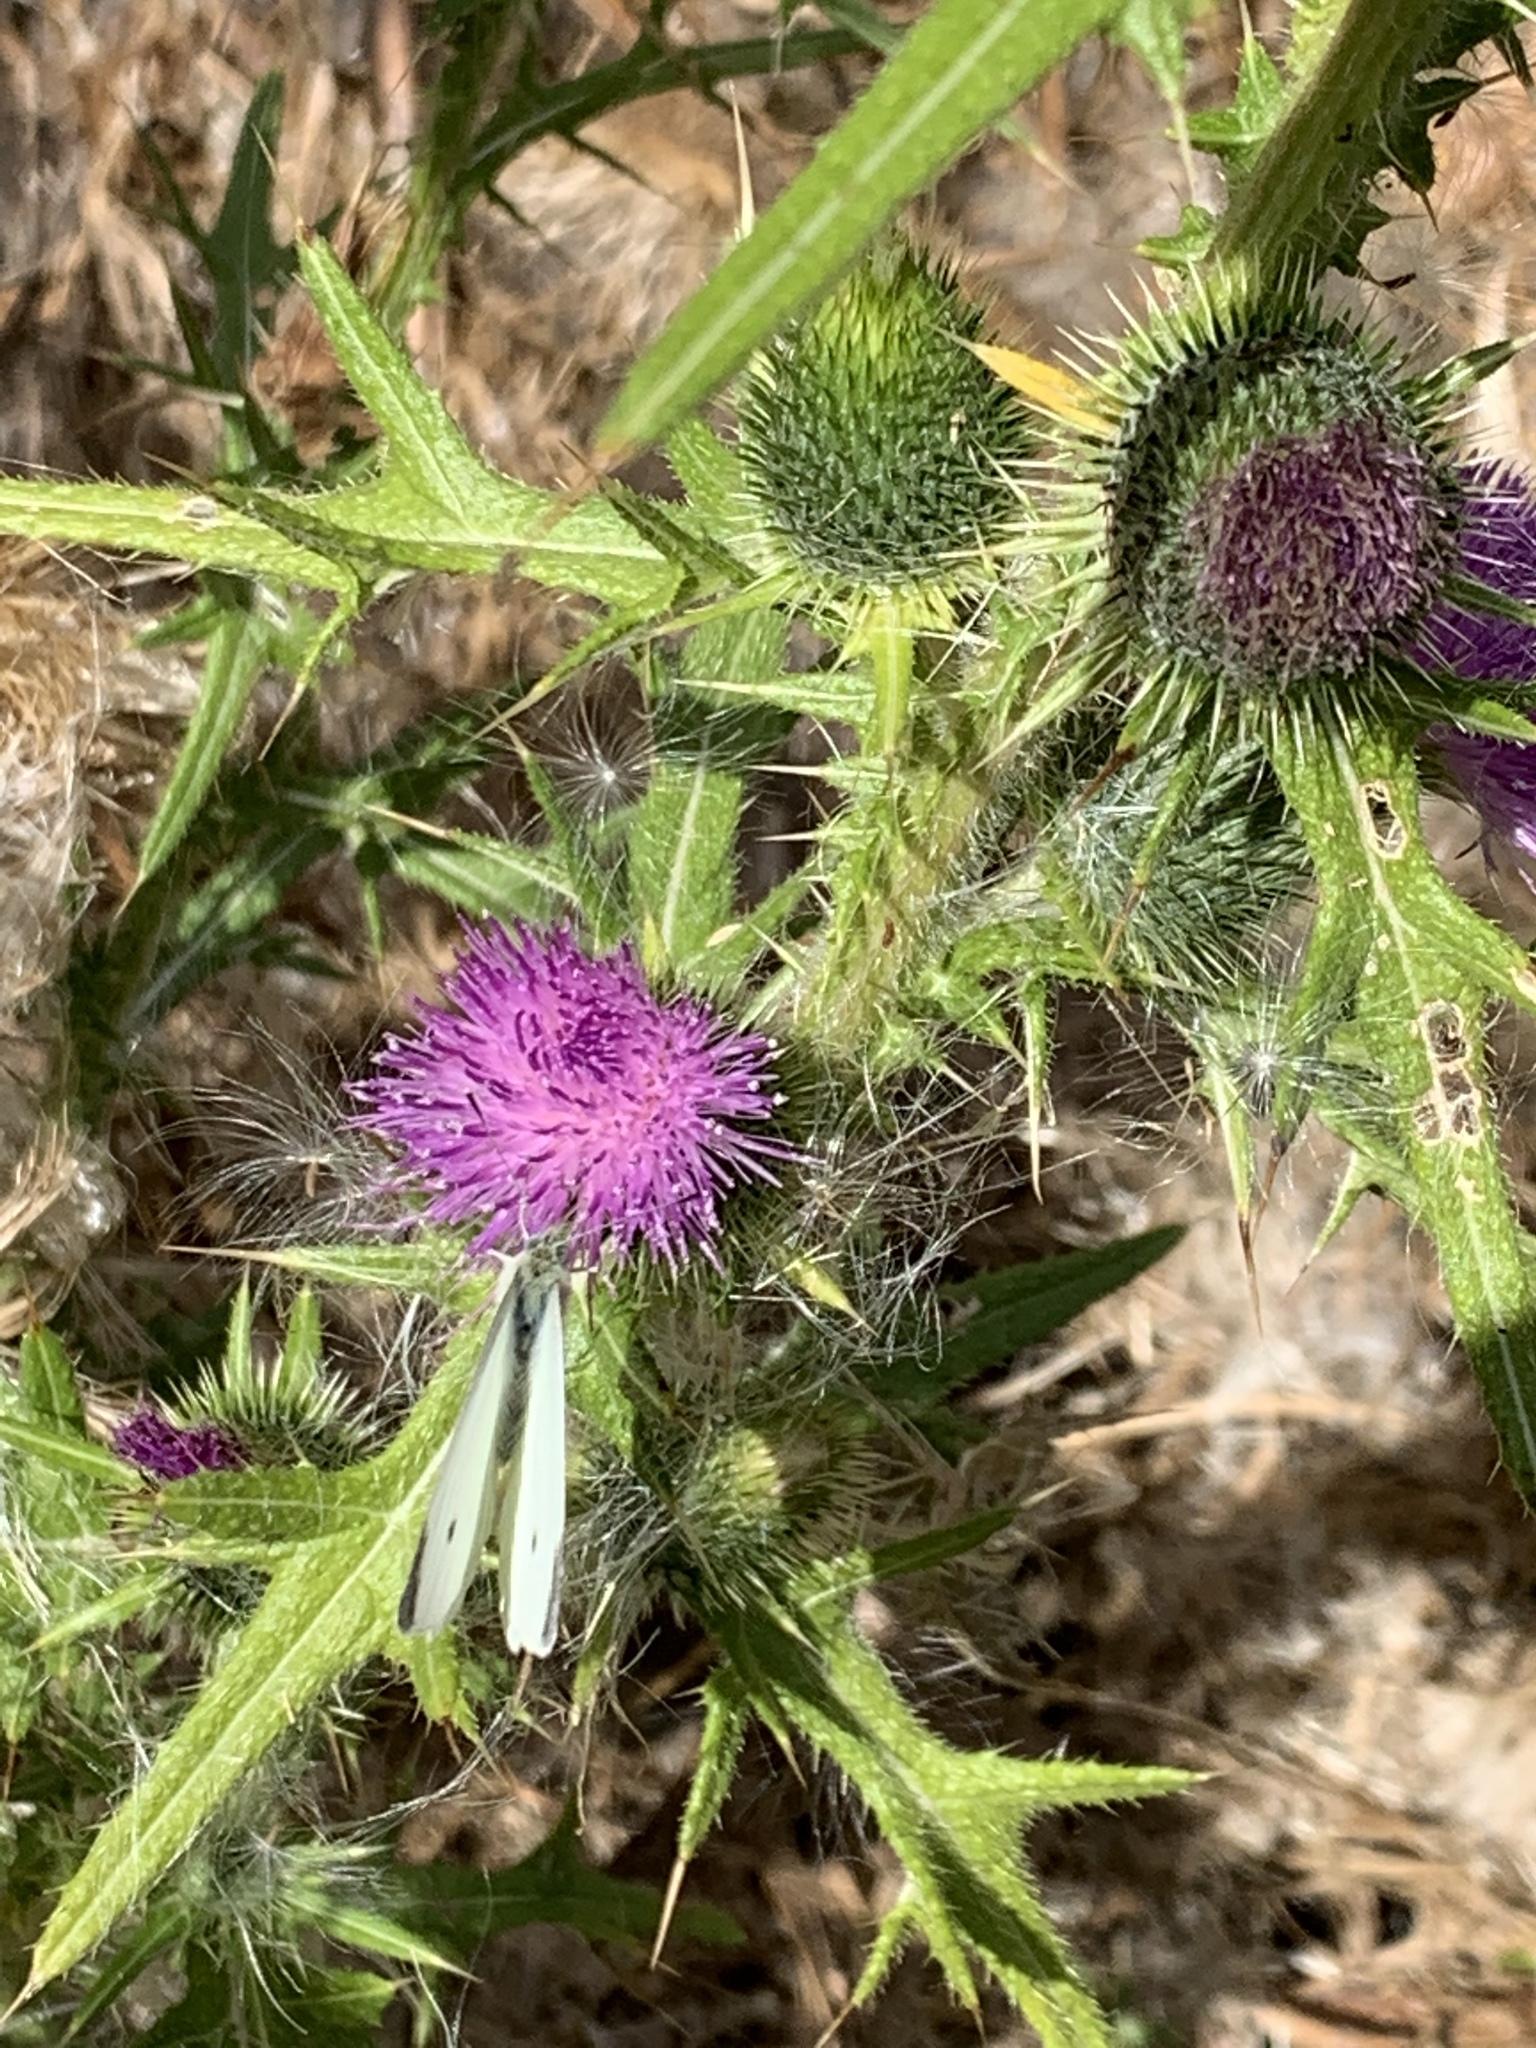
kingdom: Plantae
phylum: Tracheophyta
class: Magnoliopsida
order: Asterales
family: Asteraceae
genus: Cirsium
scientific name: Cirsium vulgare
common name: Bull thistle
